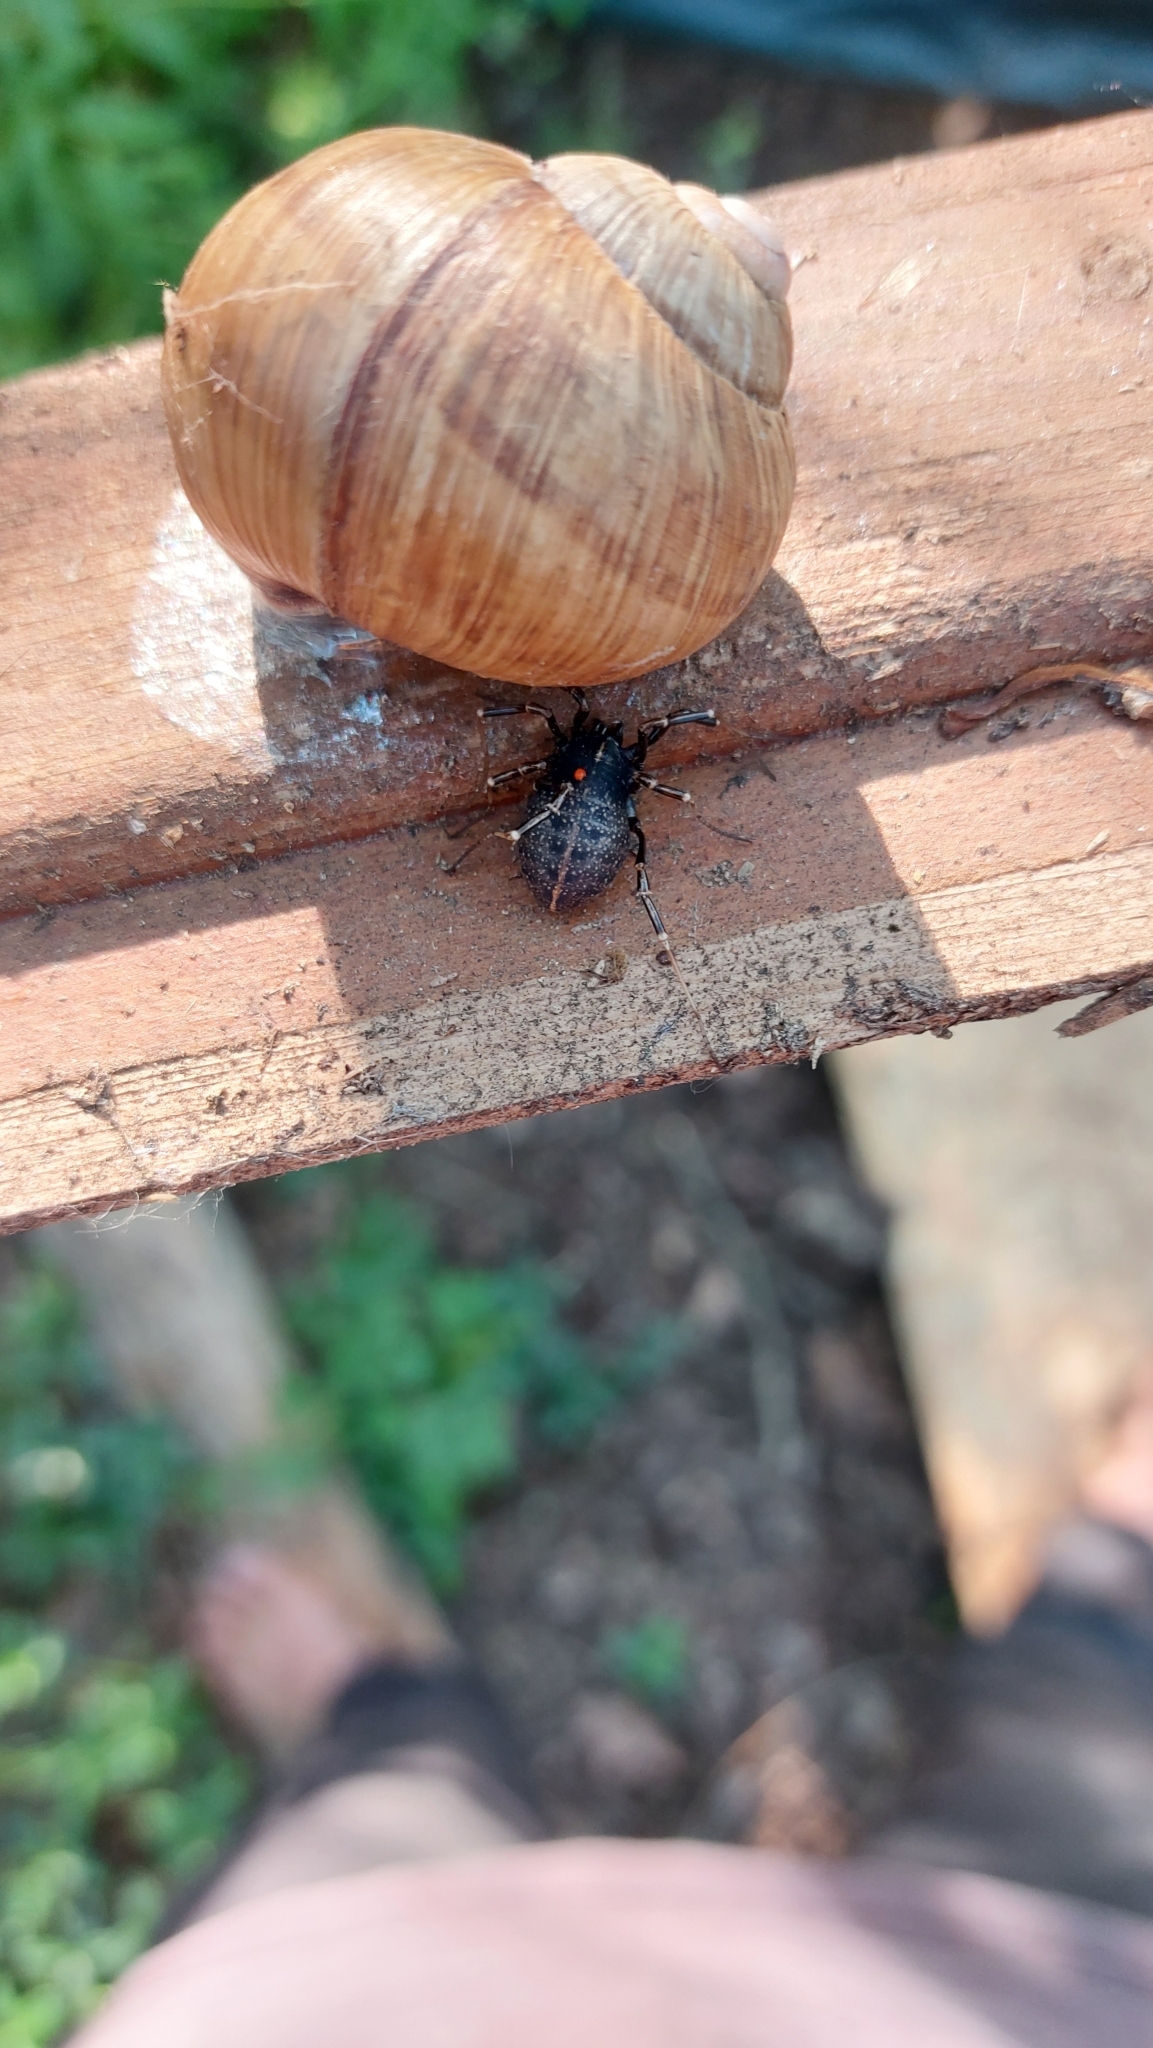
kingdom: Animalia
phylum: Arthropoda
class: Arachnida
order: Opiliones
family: Phalangiidae
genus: Egaenus
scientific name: Egaenus convexus
